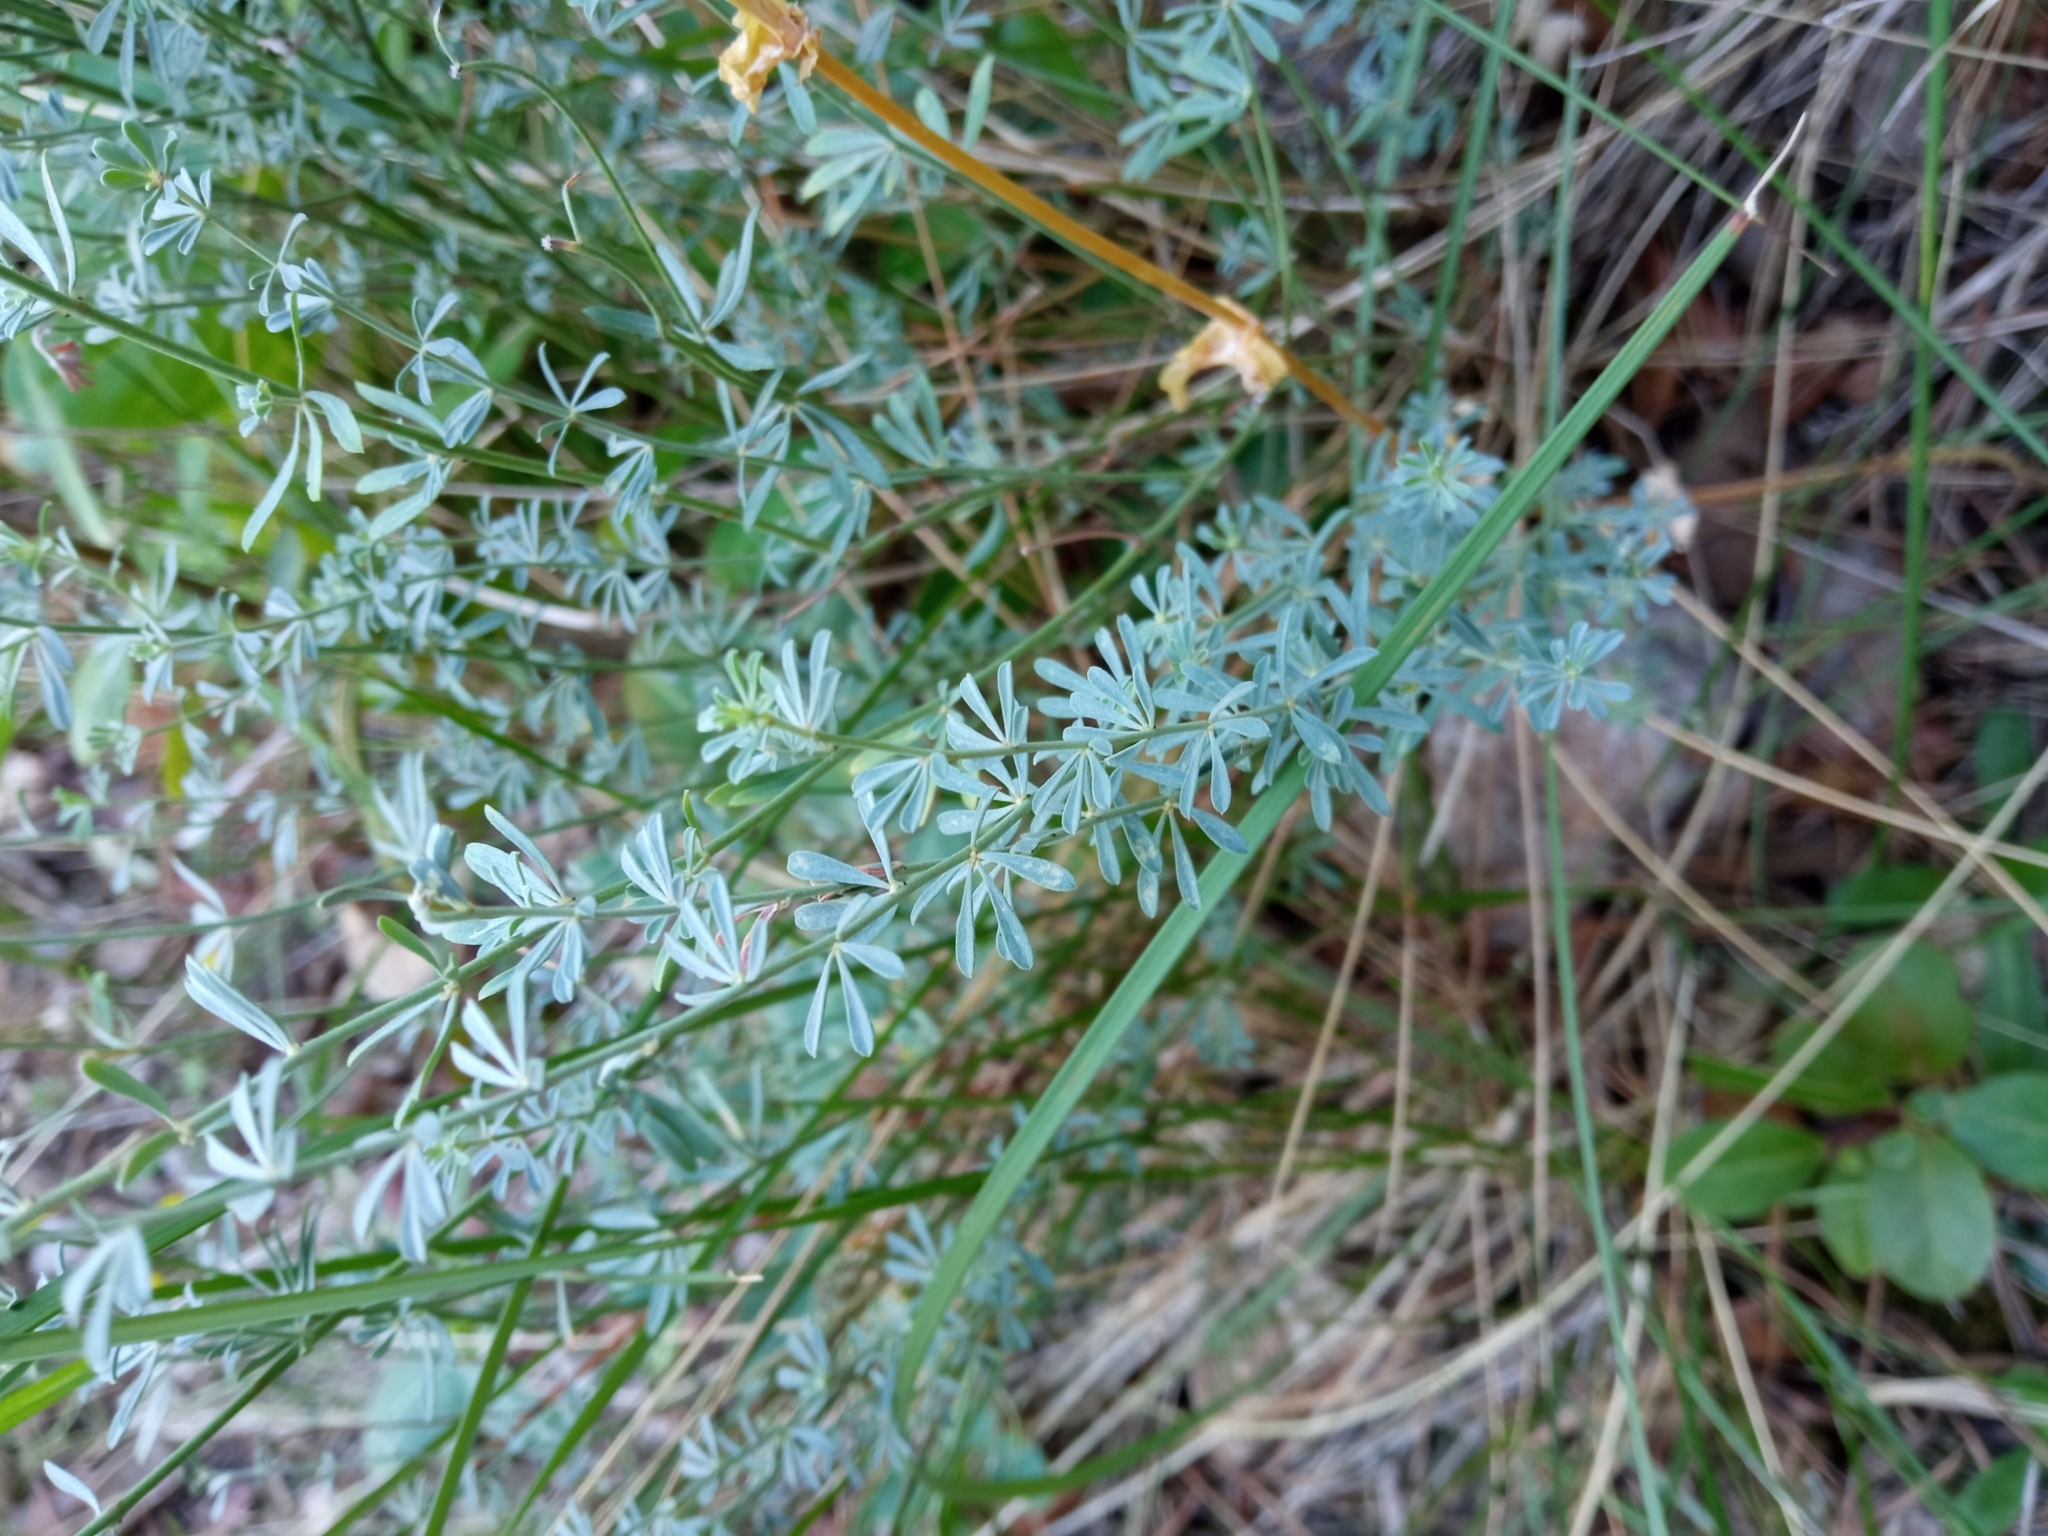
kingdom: Plantae
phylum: Tracheophyta
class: Magnoliopsida
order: Fabales
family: Fabaceae
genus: Lotus
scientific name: Lotus dorycnium
